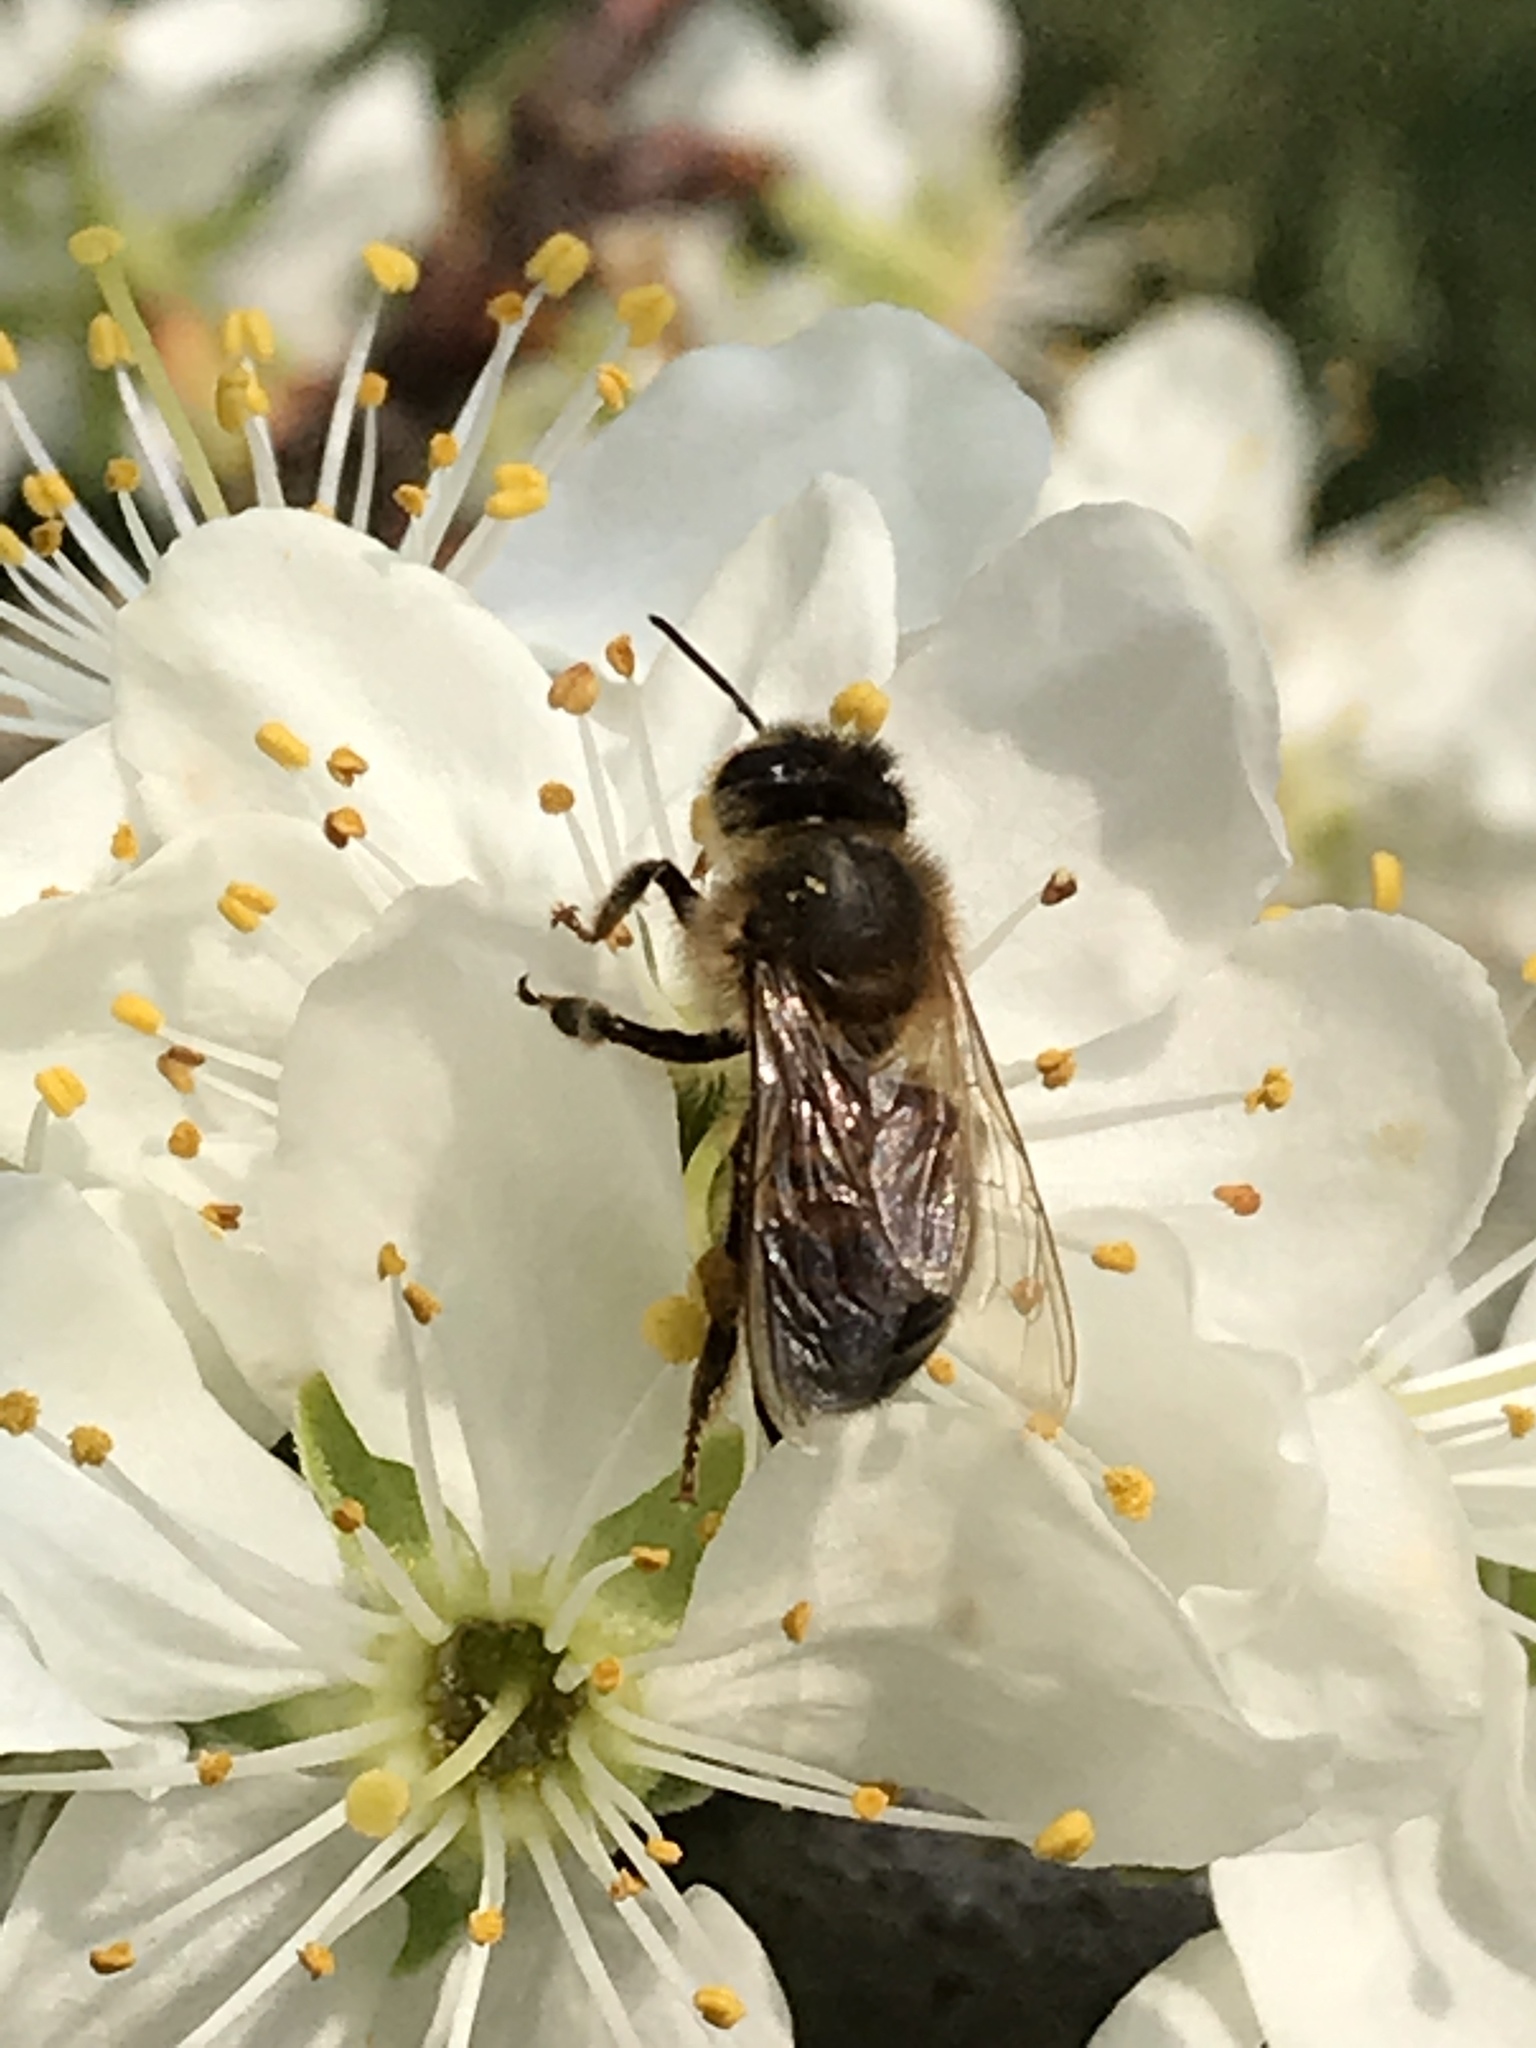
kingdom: Animalia
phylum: Arthropoda
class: Insecta
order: Hymenoptera
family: Apidae
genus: Apis
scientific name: Apis mellifera
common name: Honey bee
